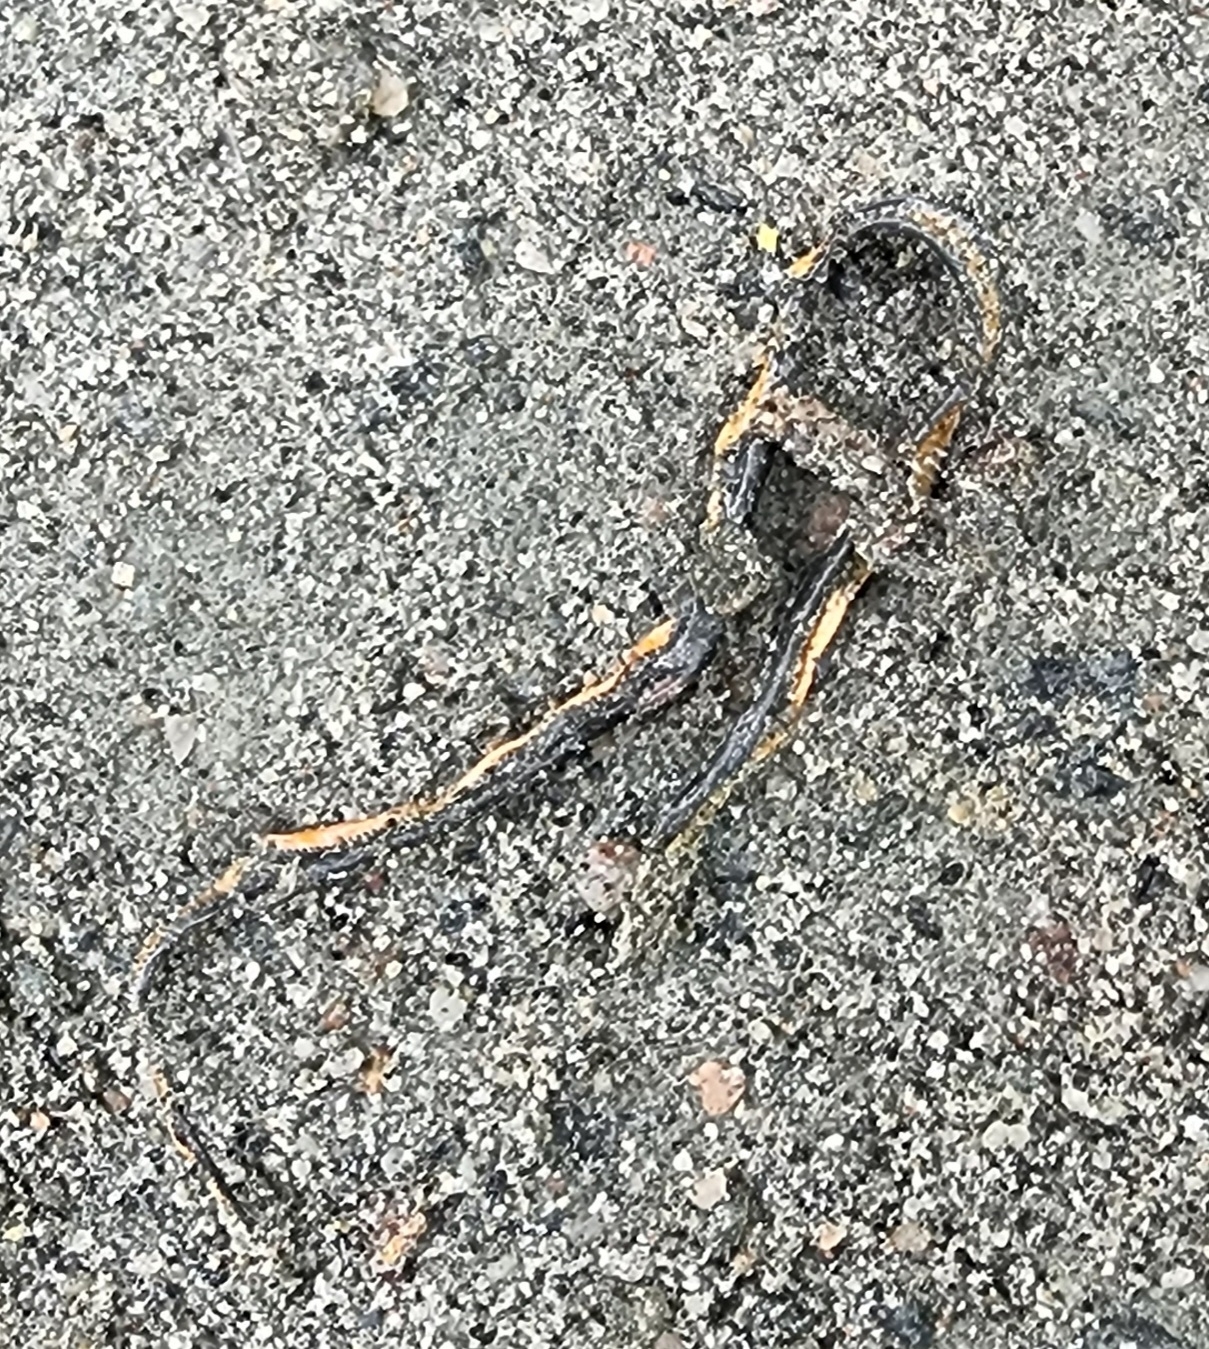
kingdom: Animalia
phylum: Chordata
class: Squamata
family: Colubridae
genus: Diadophis
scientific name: Diadophis punctatus
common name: Ringneck snake
